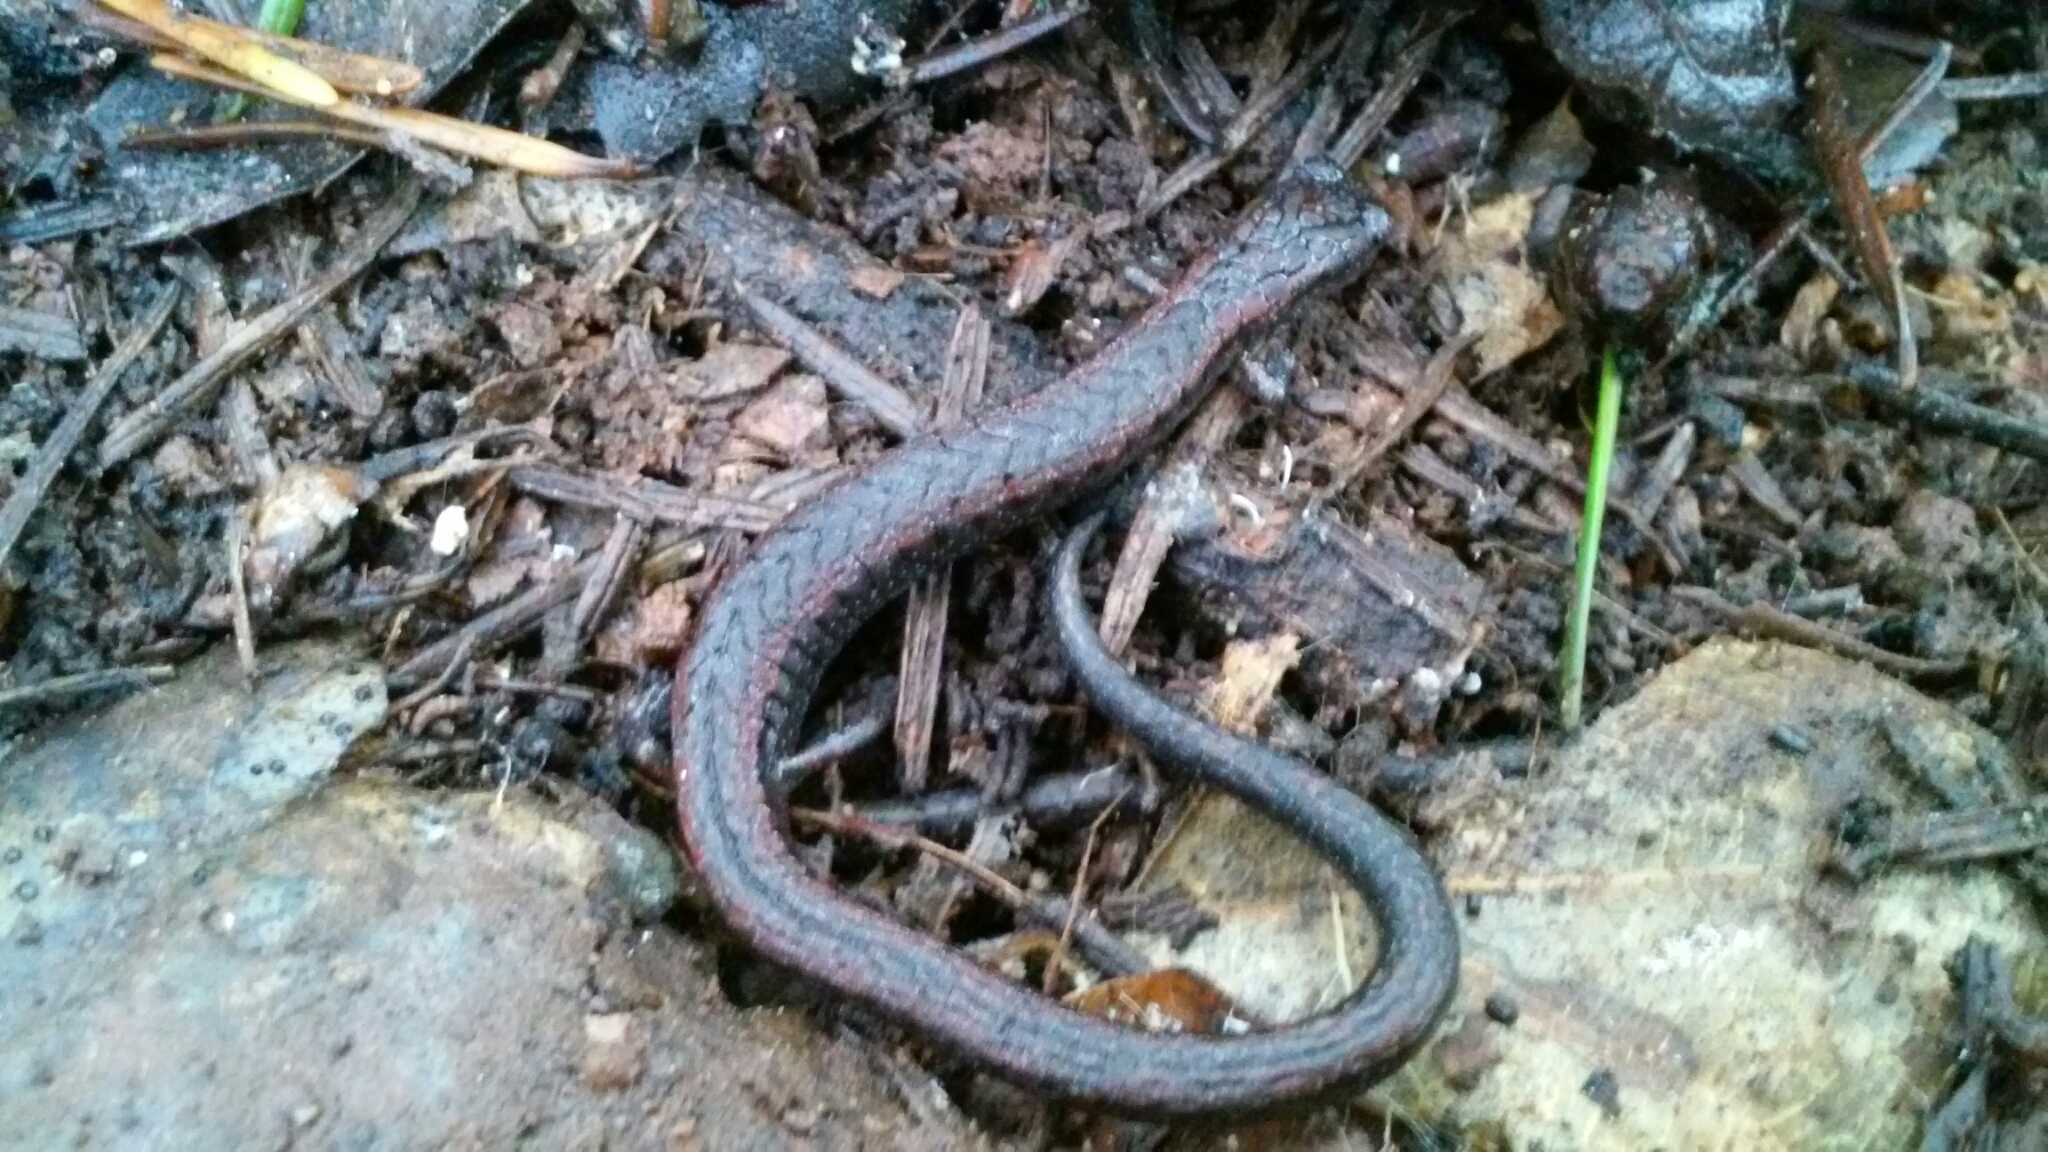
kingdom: Animalia
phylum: Chordata
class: Amphibia
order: Caudata
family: Plethodontidae
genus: Batrachoseps
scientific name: Batrachoseps attenuatus
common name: California slender salamander
